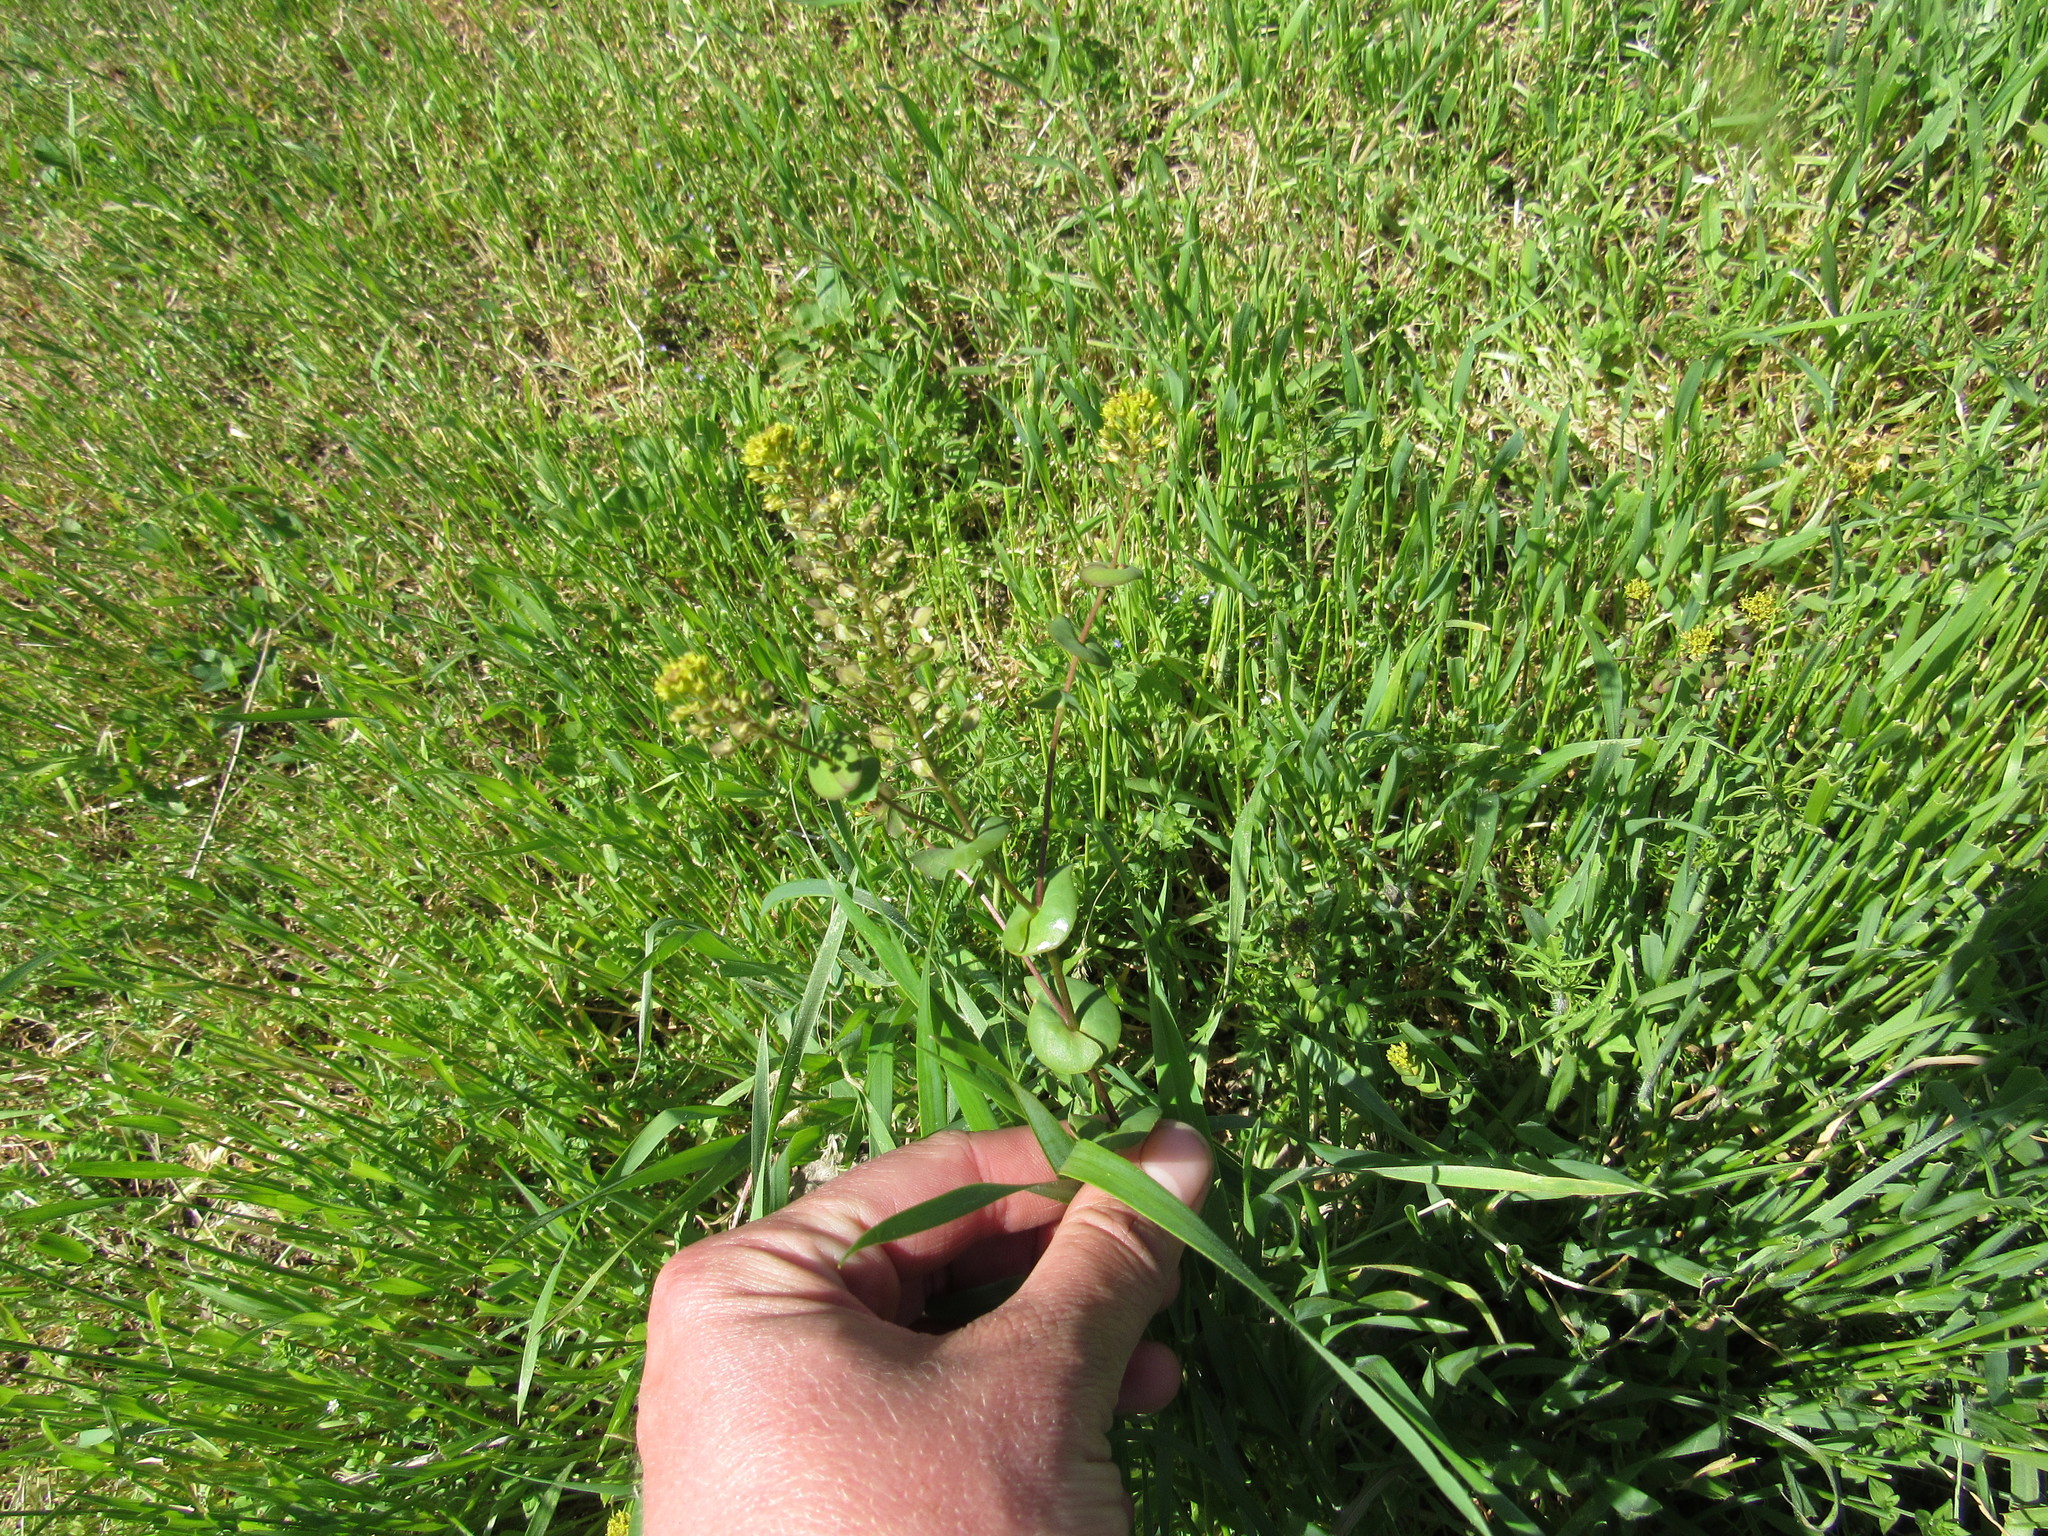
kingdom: Plantae
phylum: Tracheophyta
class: Magnoliopsida
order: Brassicales
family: Brassicaceae
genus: Lepidium
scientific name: Lepidium perfoliatum
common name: Perfoliate pepperwort
